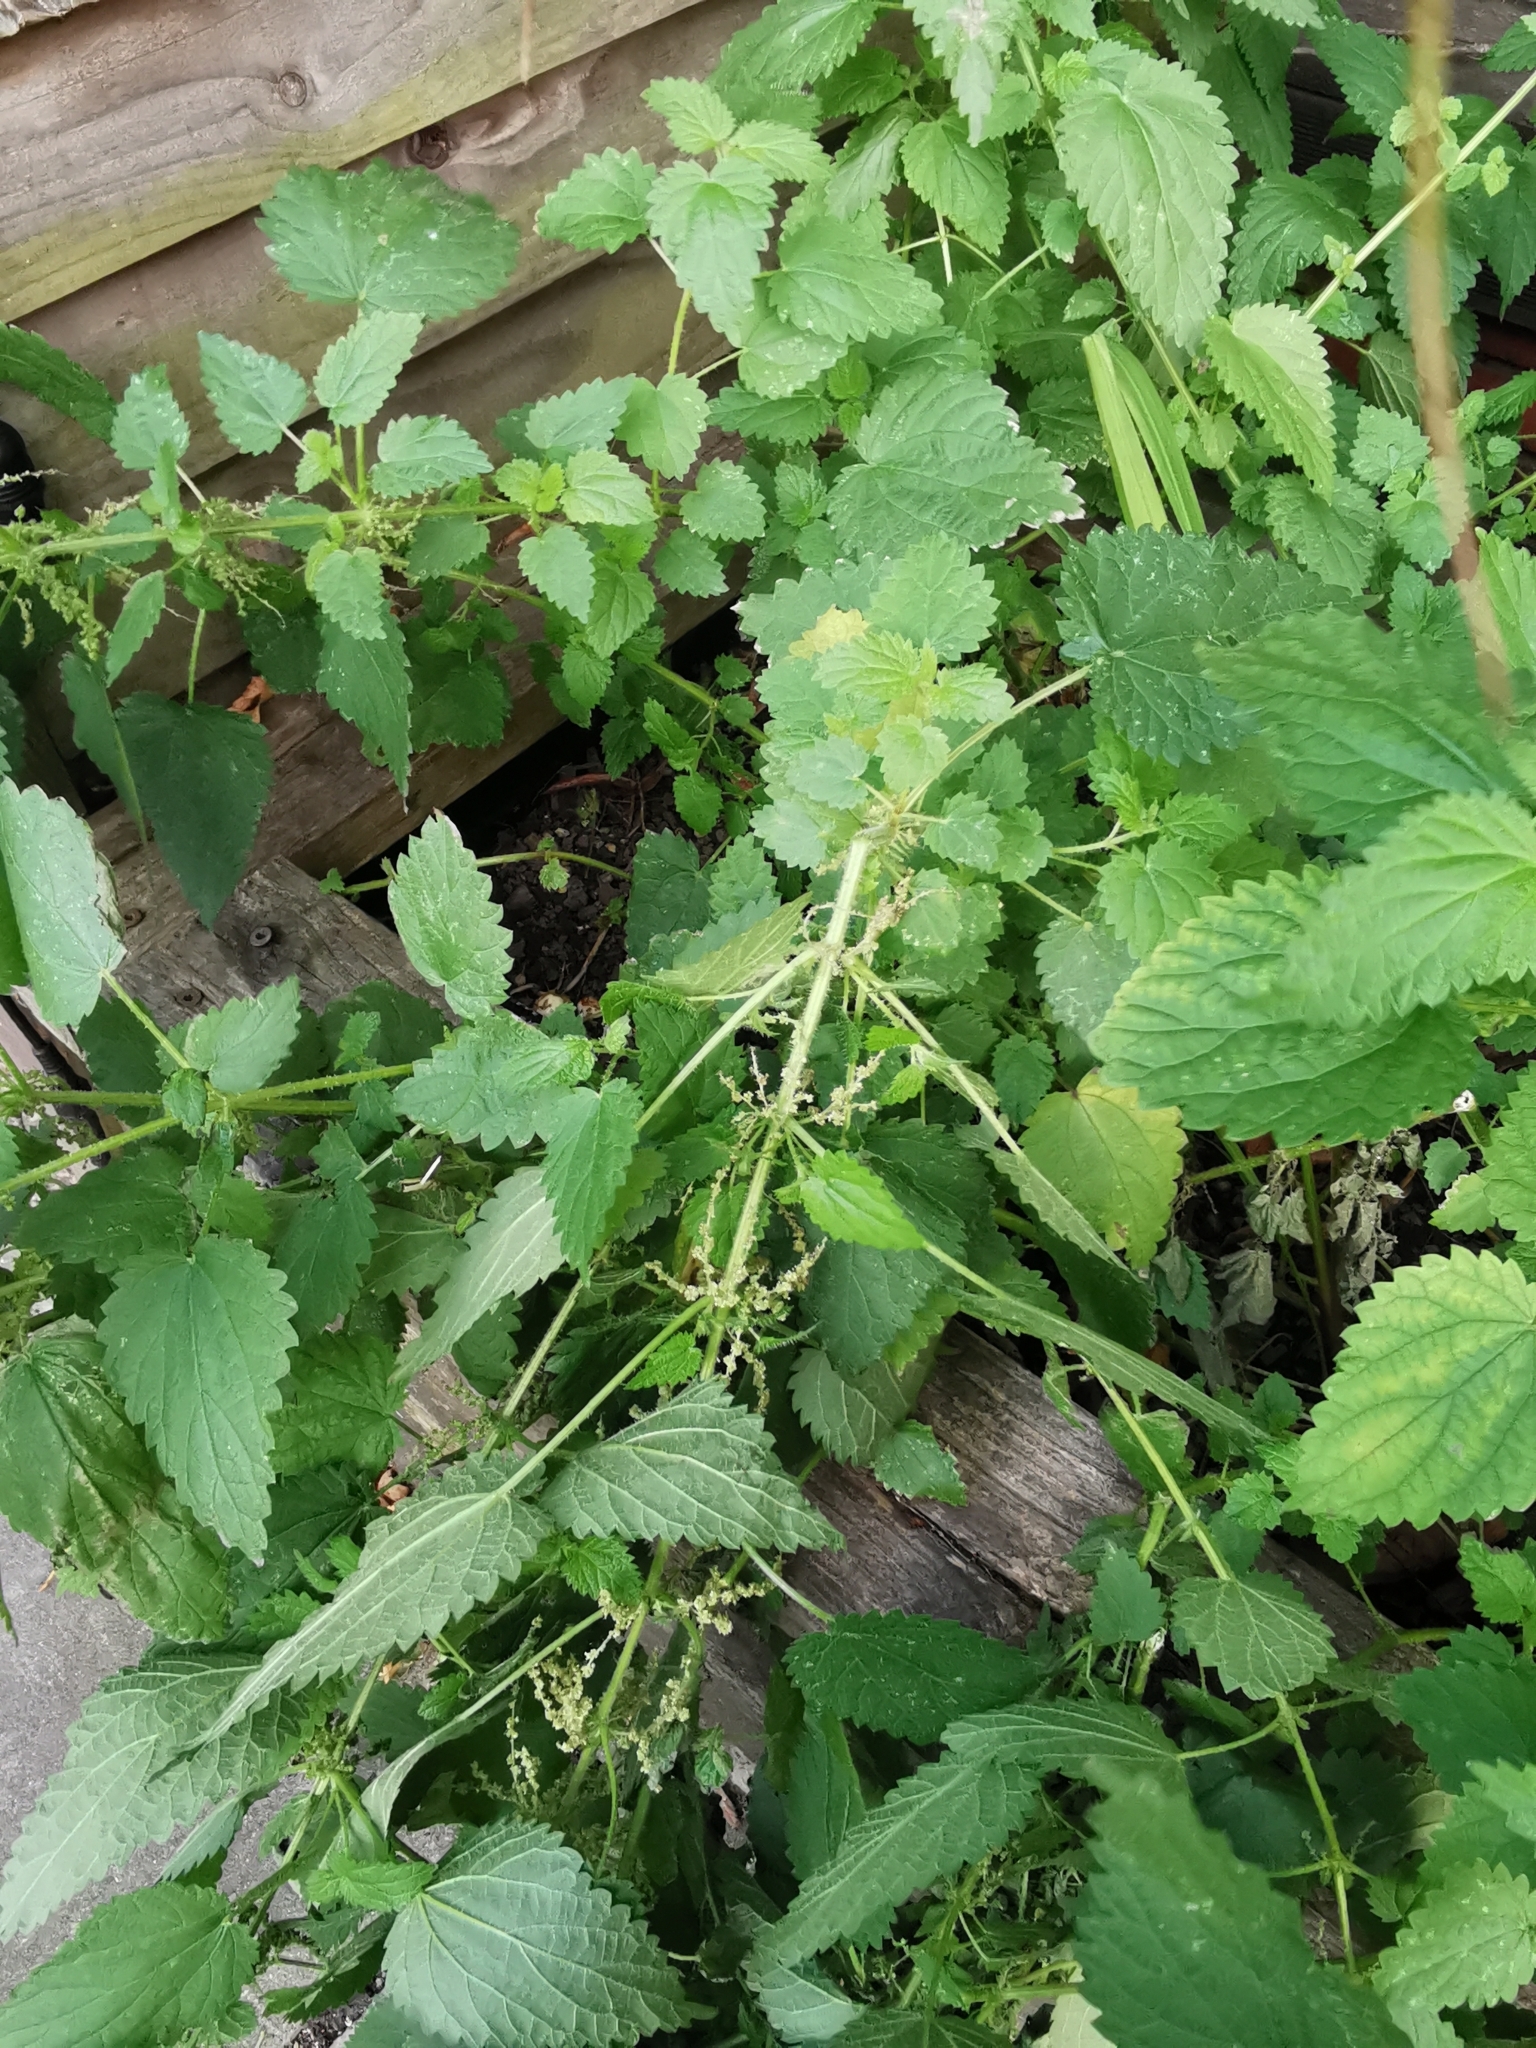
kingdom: Plantae
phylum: Tracheophyta
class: Magnoliopsida
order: Rosales
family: Urticaceae
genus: Urtica
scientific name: Urtica dioica
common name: Common nettle
